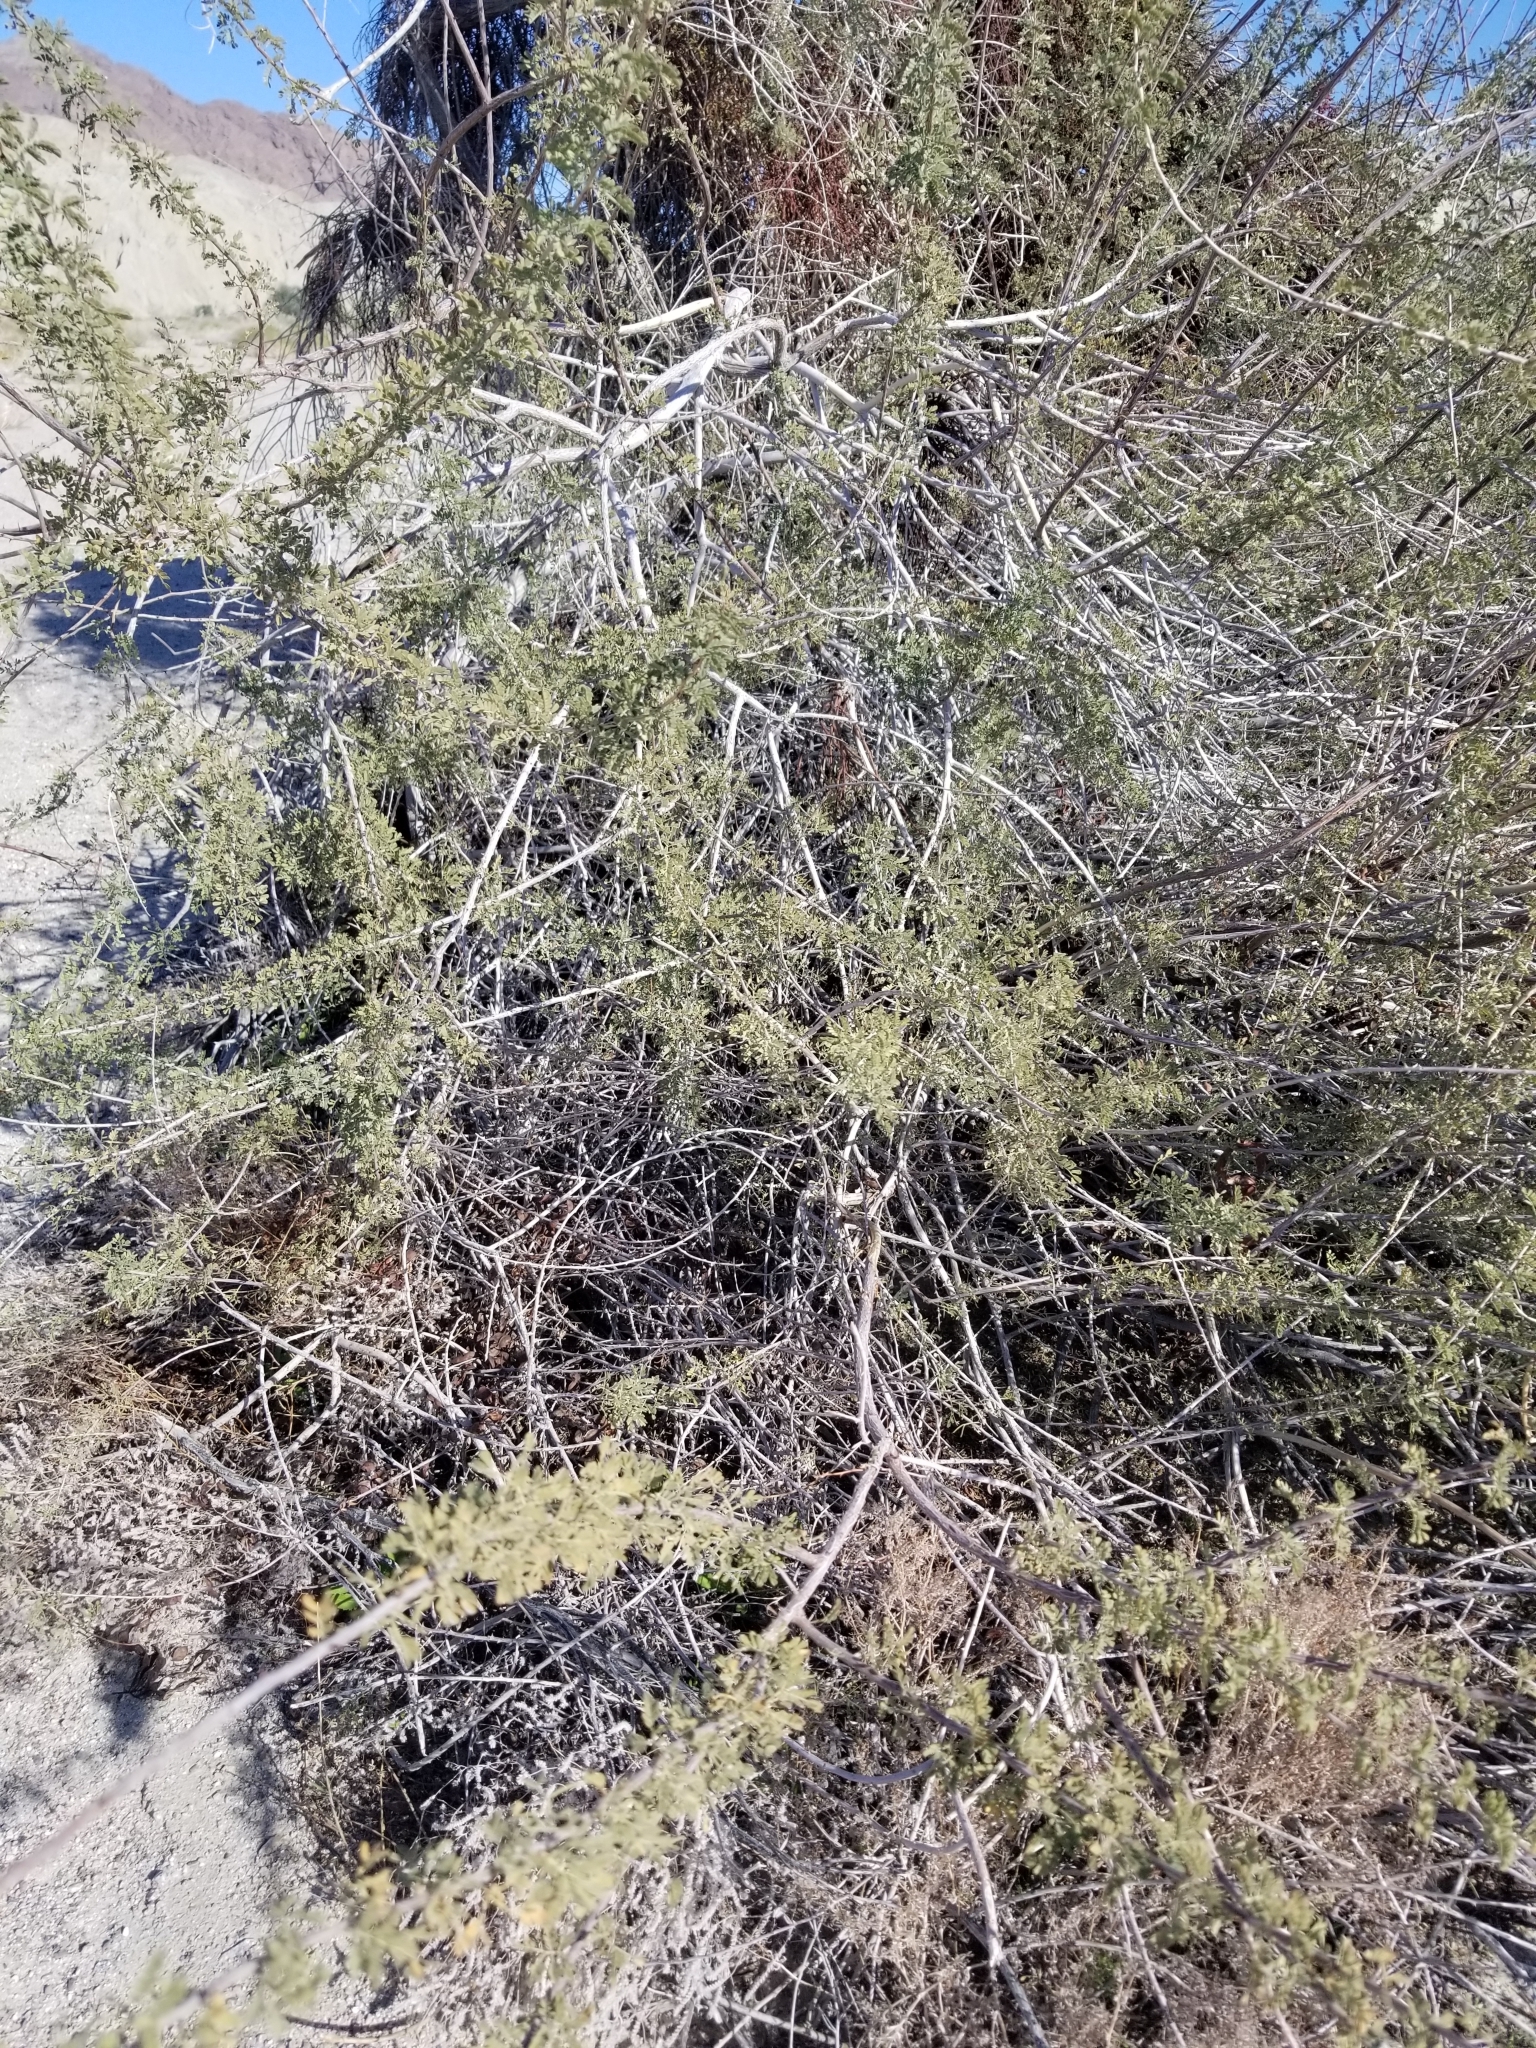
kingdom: Plantae
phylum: Tracheophyta
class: Magnoliopsida
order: Fabales
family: Fabaceae
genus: Senegalia
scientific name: Senegalia greggii
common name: Texas-mimosa
